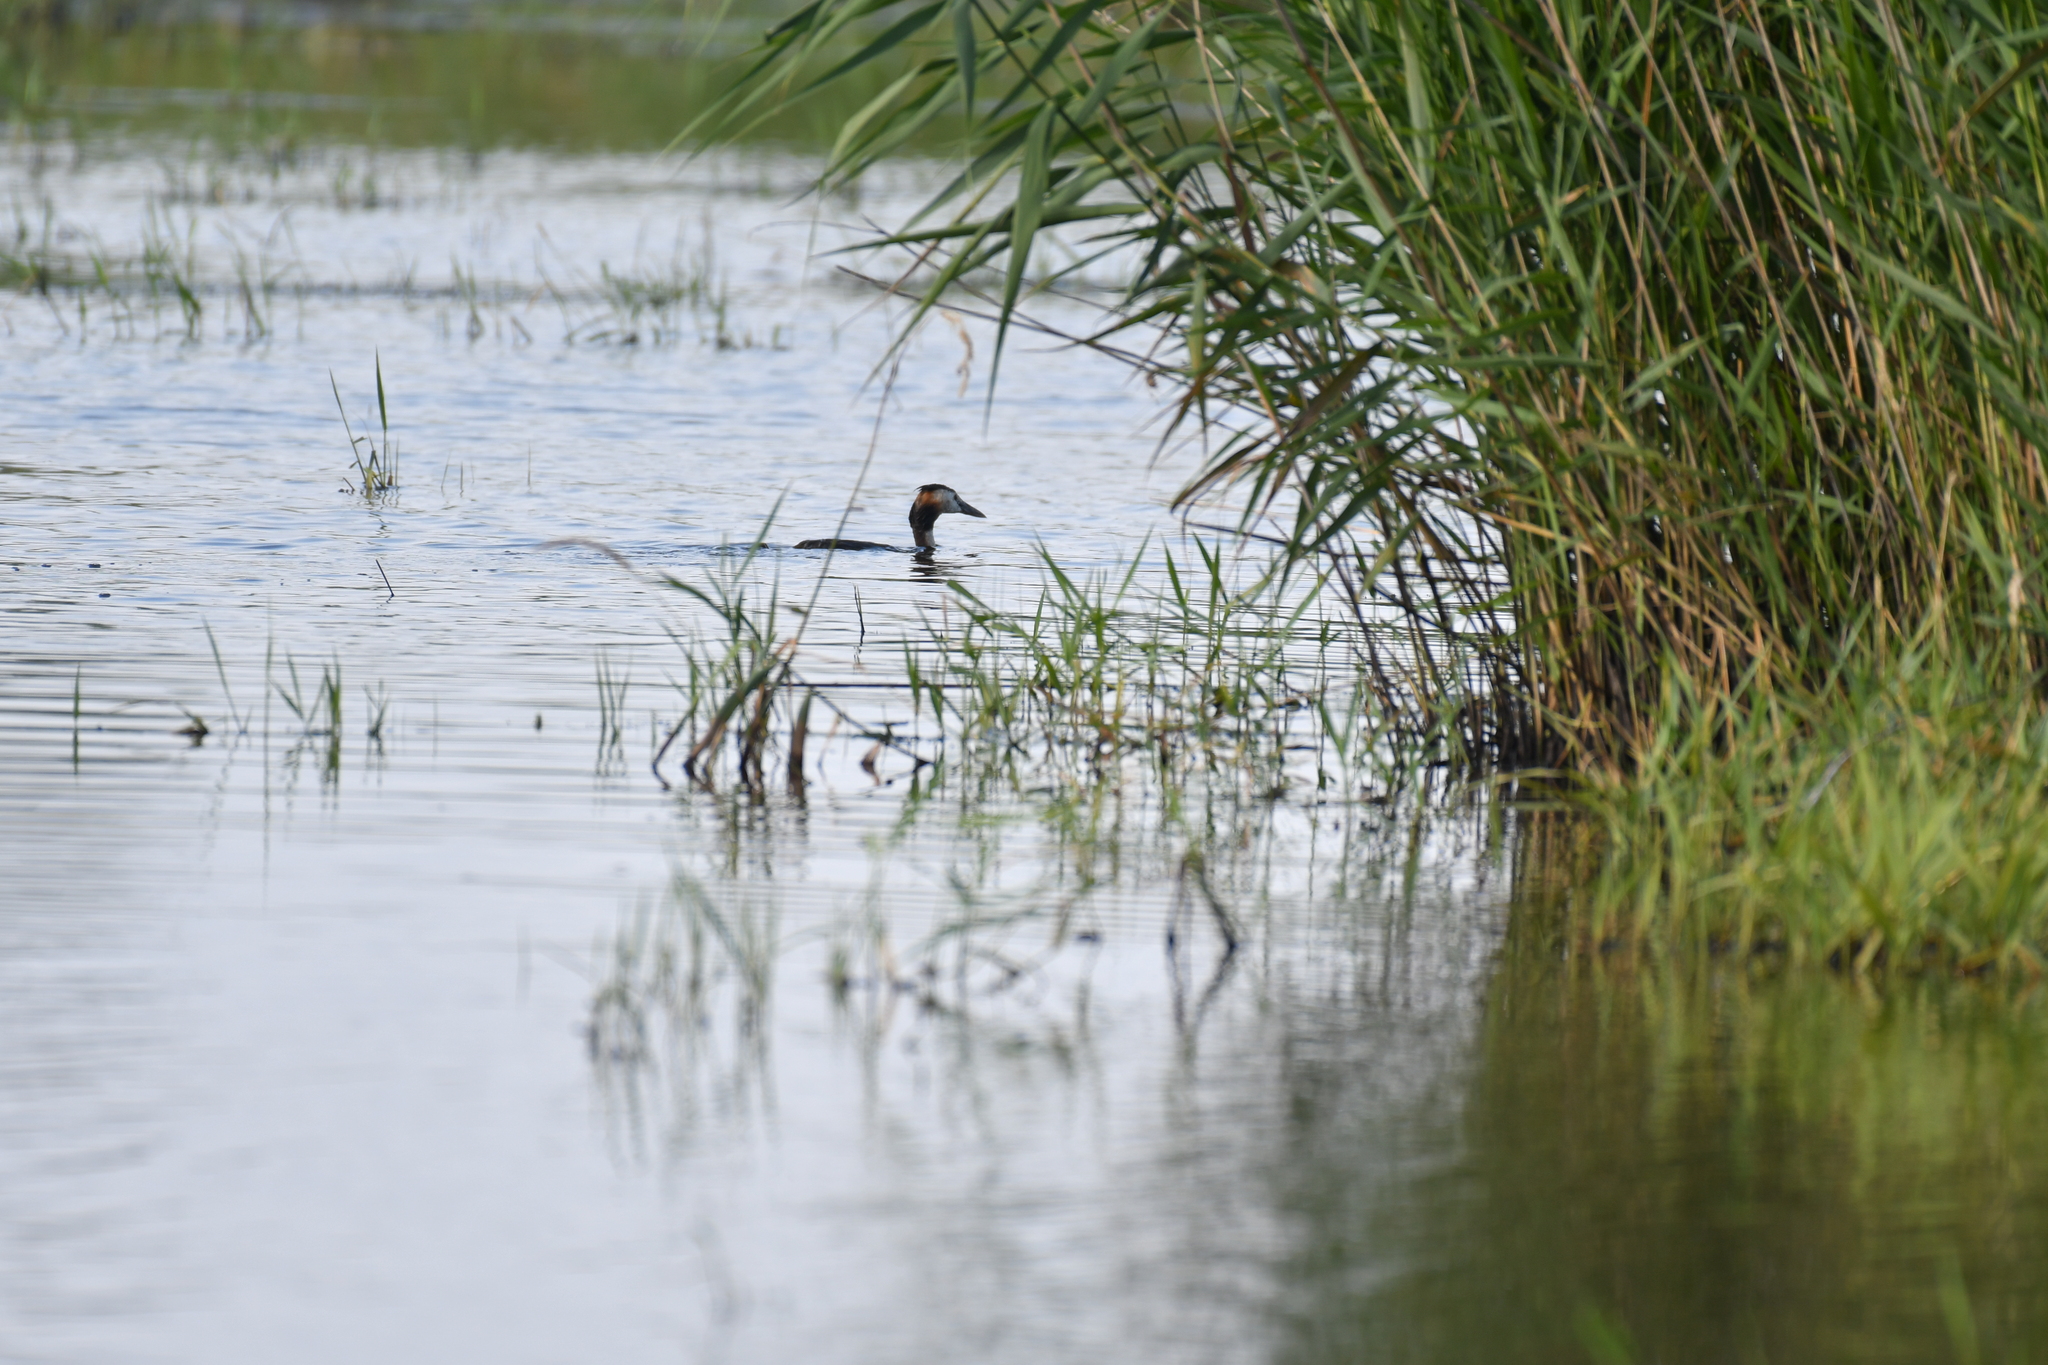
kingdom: Animalia
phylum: Chordata
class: Aves
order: Podicipediformes
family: Podicipedidae
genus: Podiceps
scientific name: Podiceps cristatus
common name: Great crested grebe
